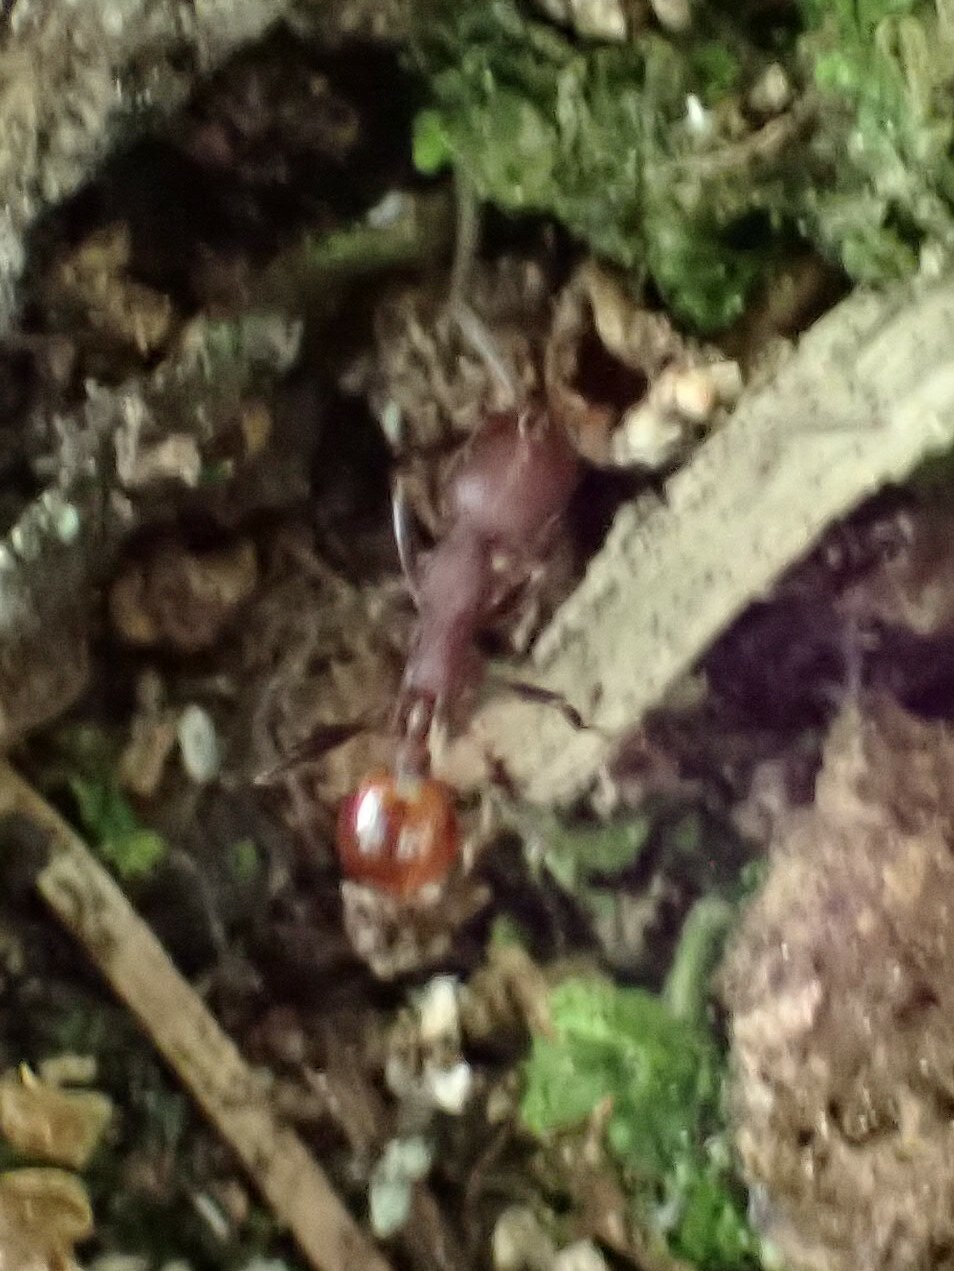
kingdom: Animalia
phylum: Arthropoda
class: Insecta
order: Hymenoptera
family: Formicidae
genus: Aphaenogaster
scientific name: Aphaenogaster tennesseensis
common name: Tennessee thread-waisted ant
